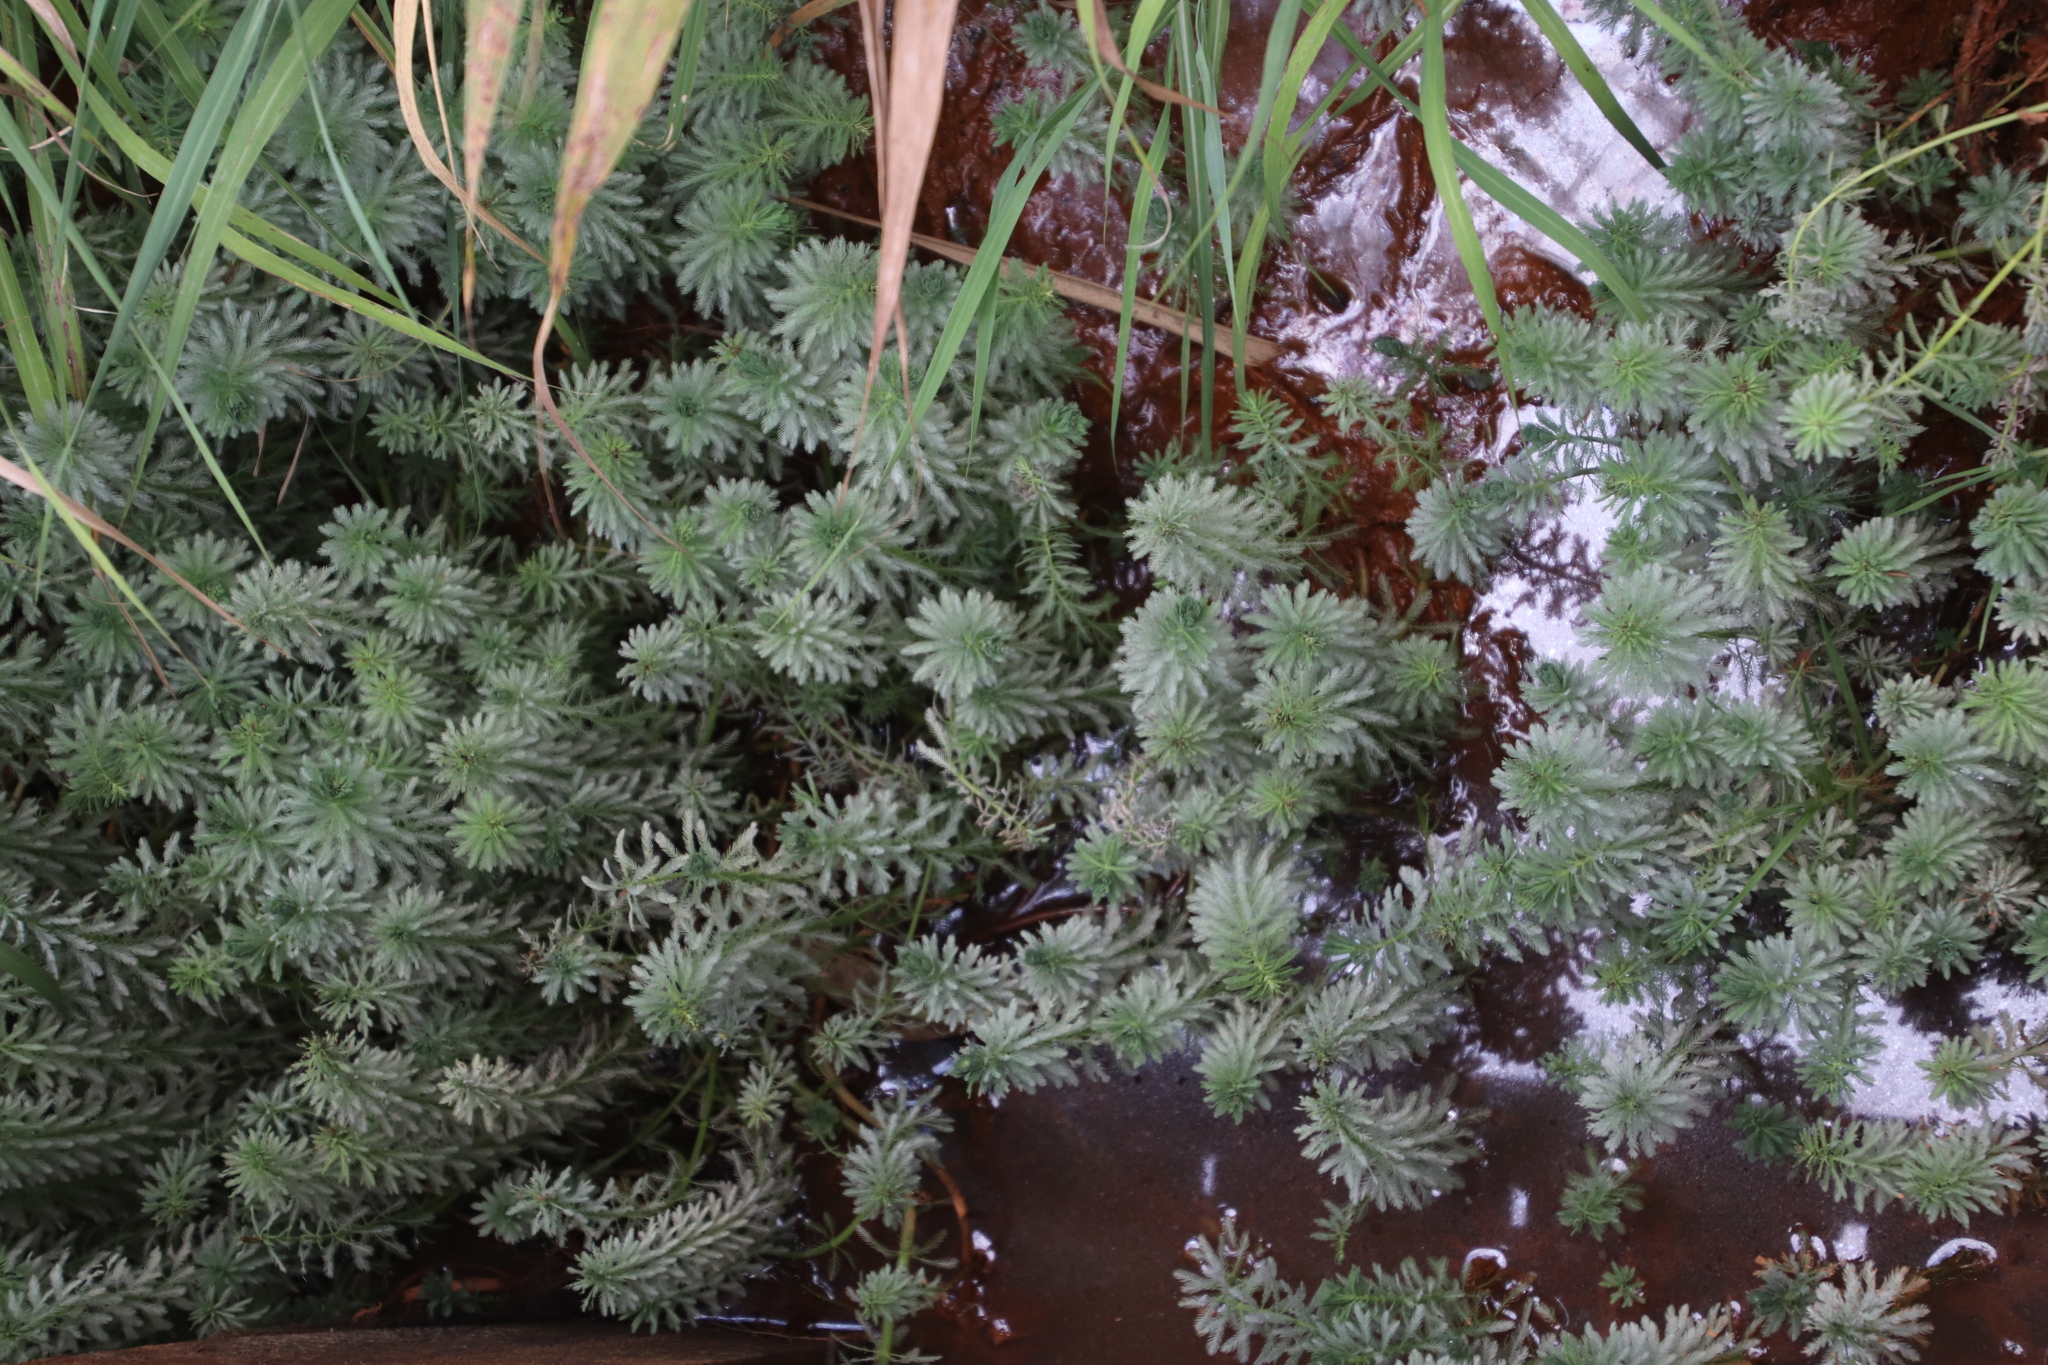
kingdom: Plantae
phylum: Tracheophyta
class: Magnoliopsida
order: Saxifragales
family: Haloragaceae
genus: Myriophyllum
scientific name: Myriophyllum aquaticum
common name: Parrot's feather
